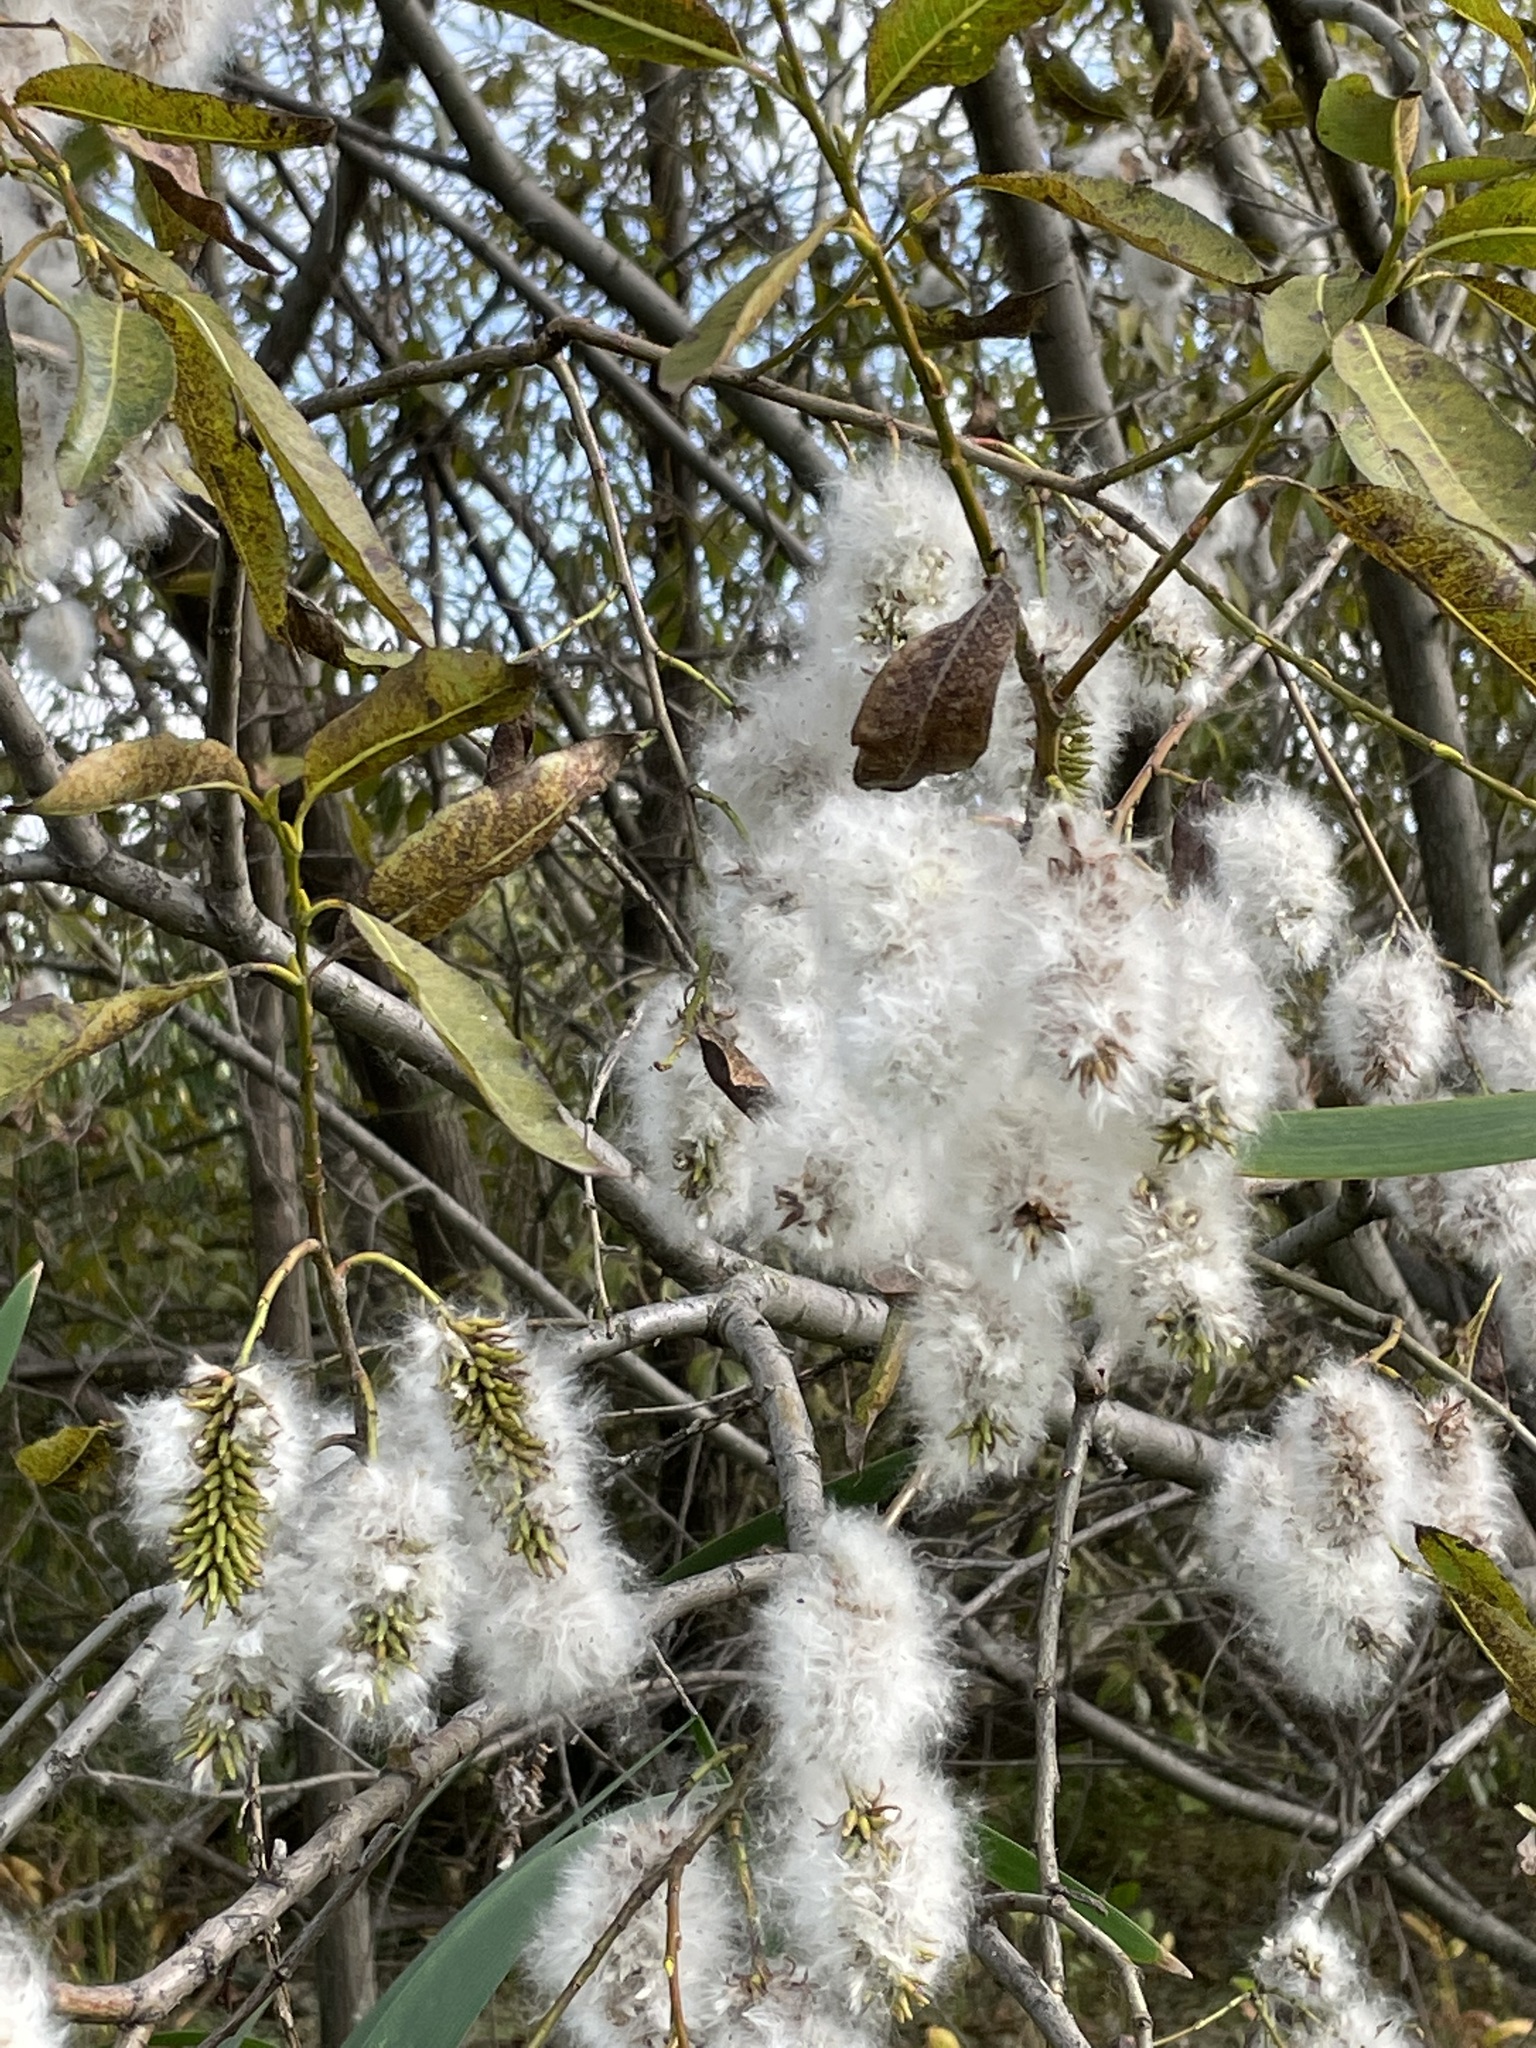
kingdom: Plantae
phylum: Tracheophyta
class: Magnoliopsida
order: Malpighiales
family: Salicaceae
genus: Salix
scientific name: Salix pentandra
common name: Bay willow
